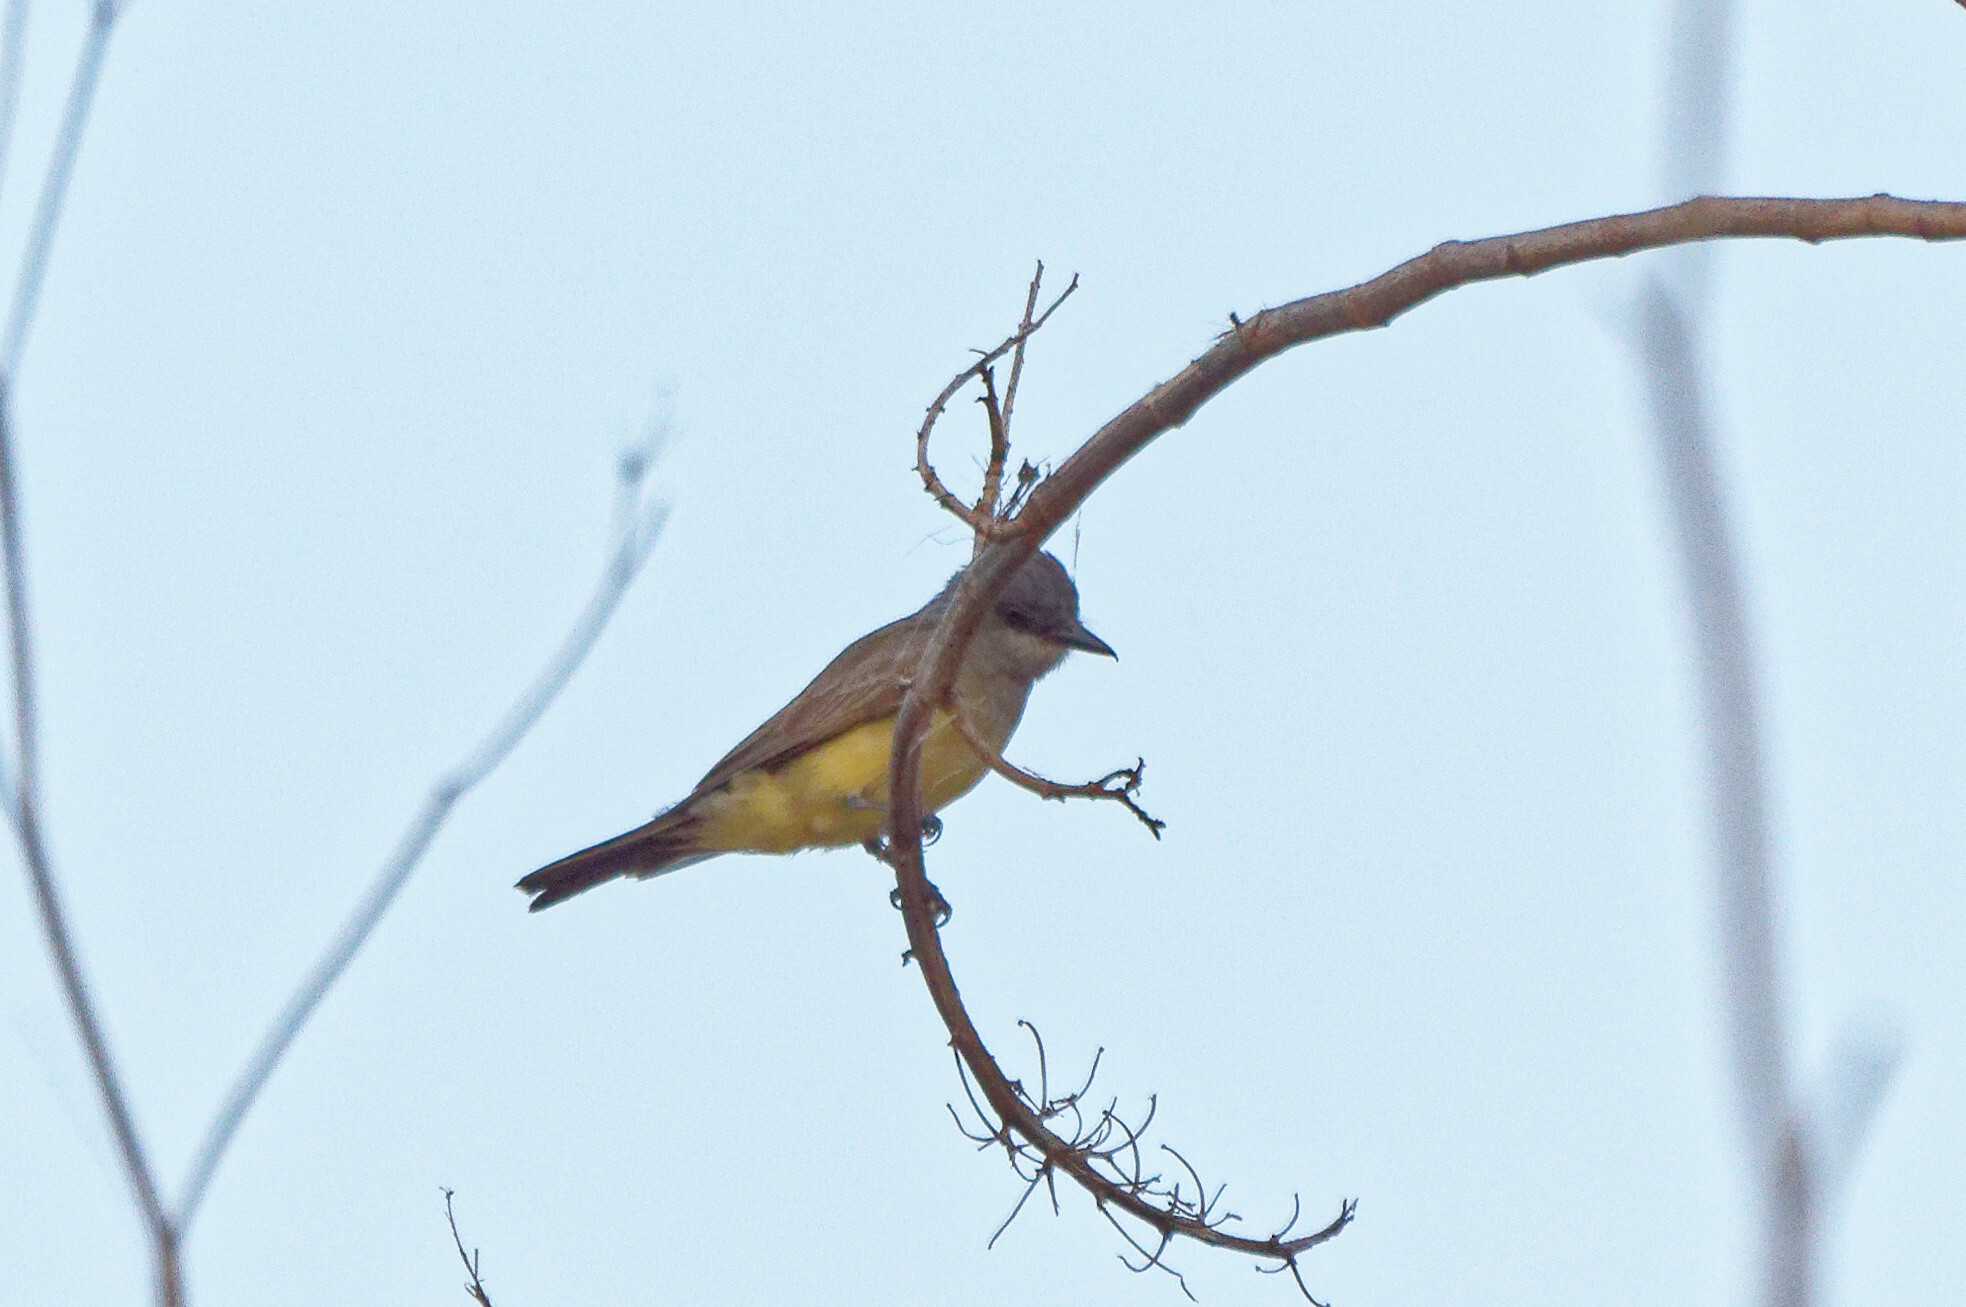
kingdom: Animalia
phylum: Chordata
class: Aves
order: Passeriformes
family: Tyrannidae
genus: Tyrannus
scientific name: Tyrannus vociferans
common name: Cassin's kingbird
